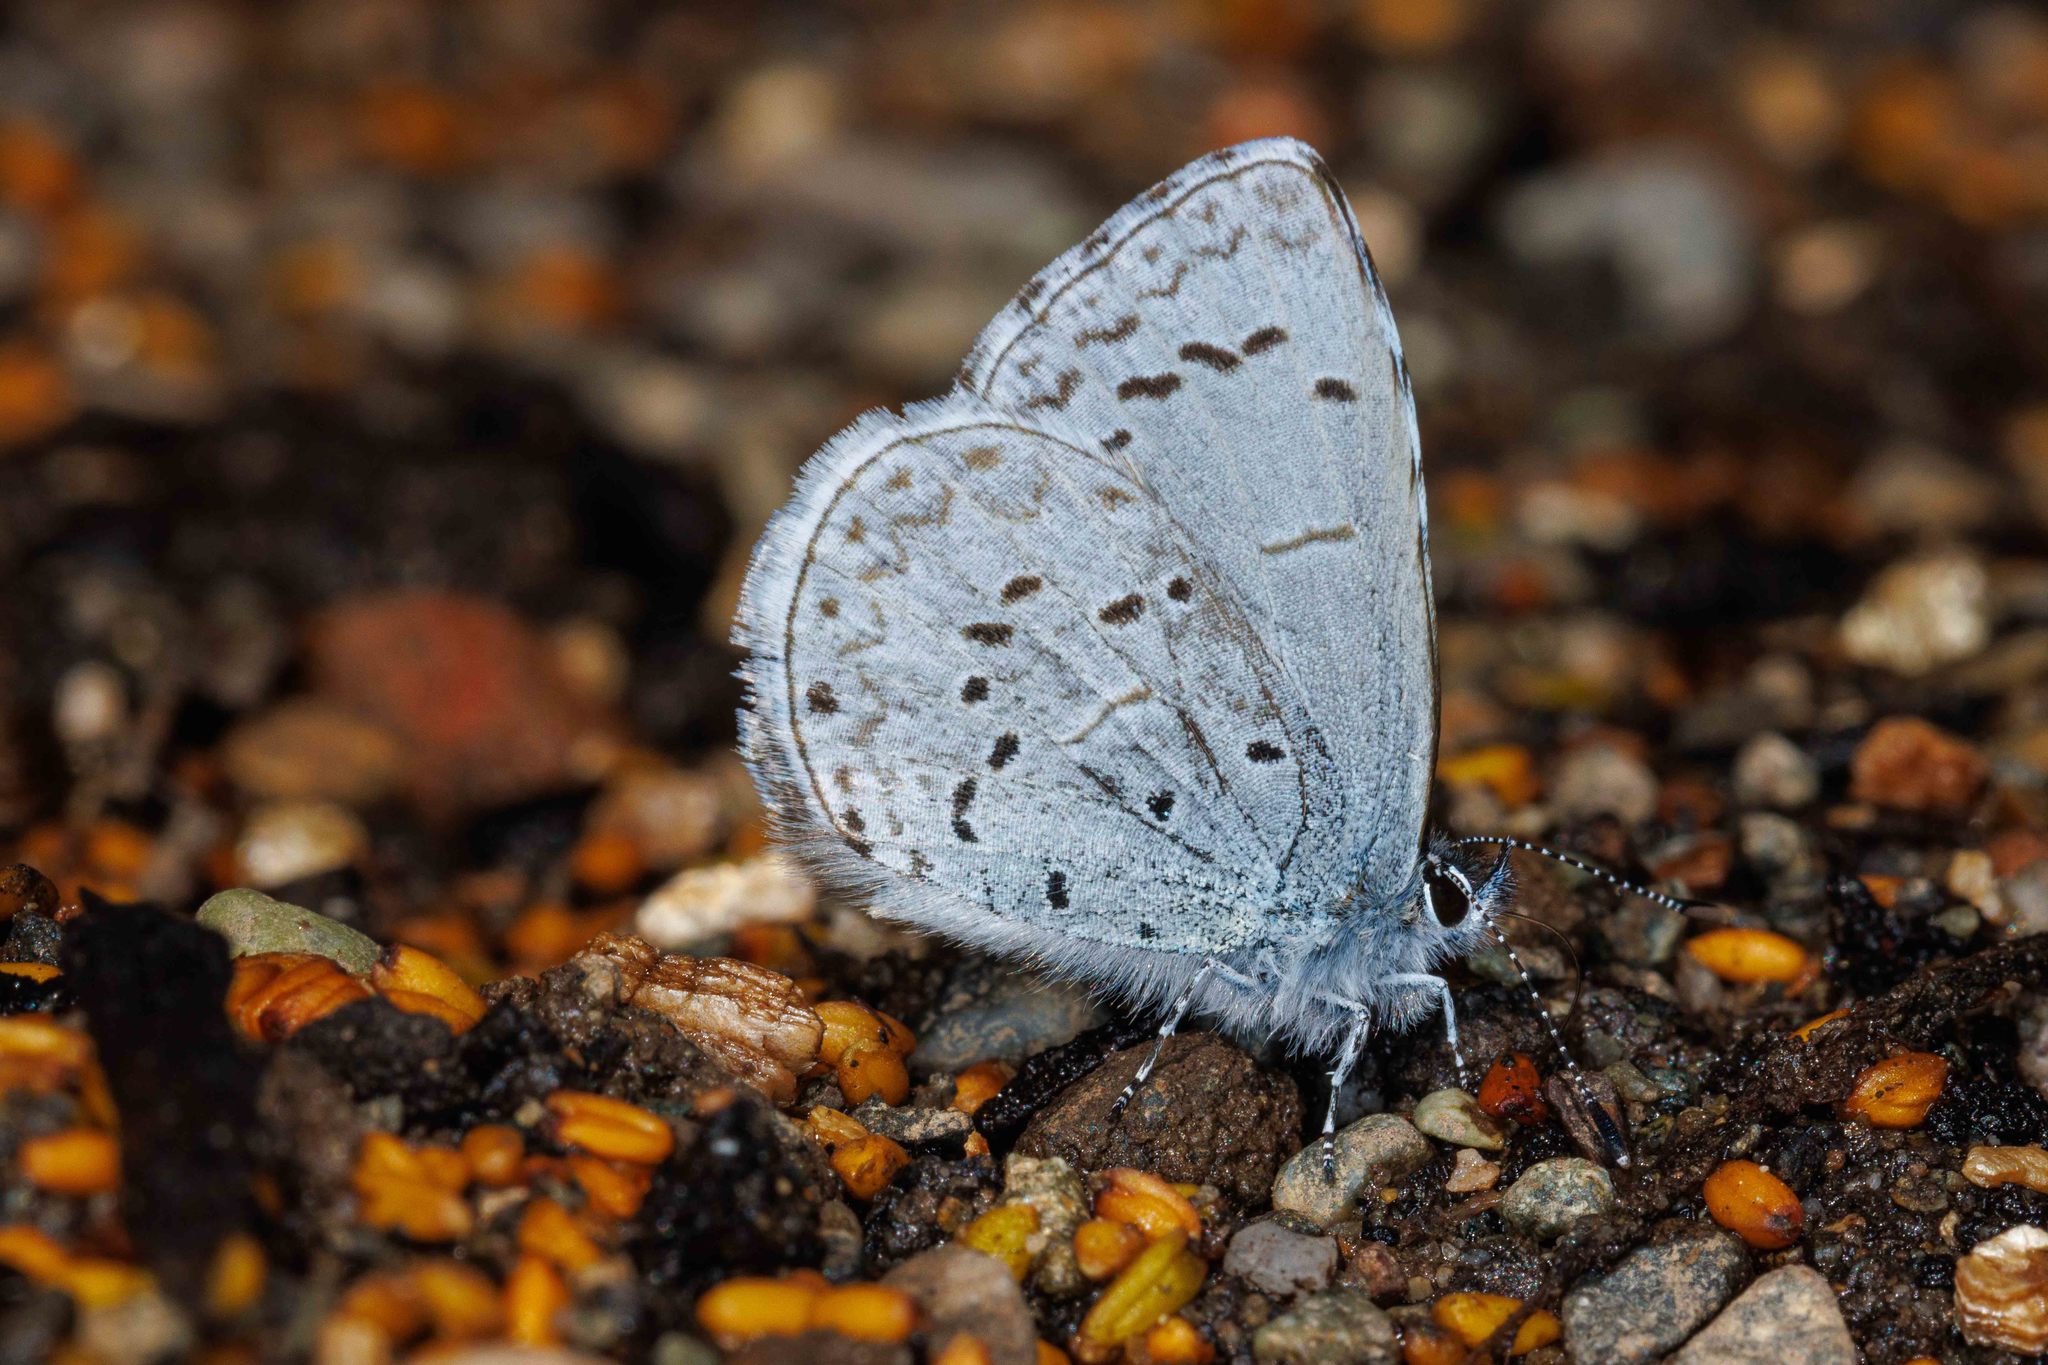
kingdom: Animalia
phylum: Arthropoda
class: Insecta
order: Lepidoptera
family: Lycaenidae
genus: Celastrina
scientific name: Celastrina ladon
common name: Spring azure
